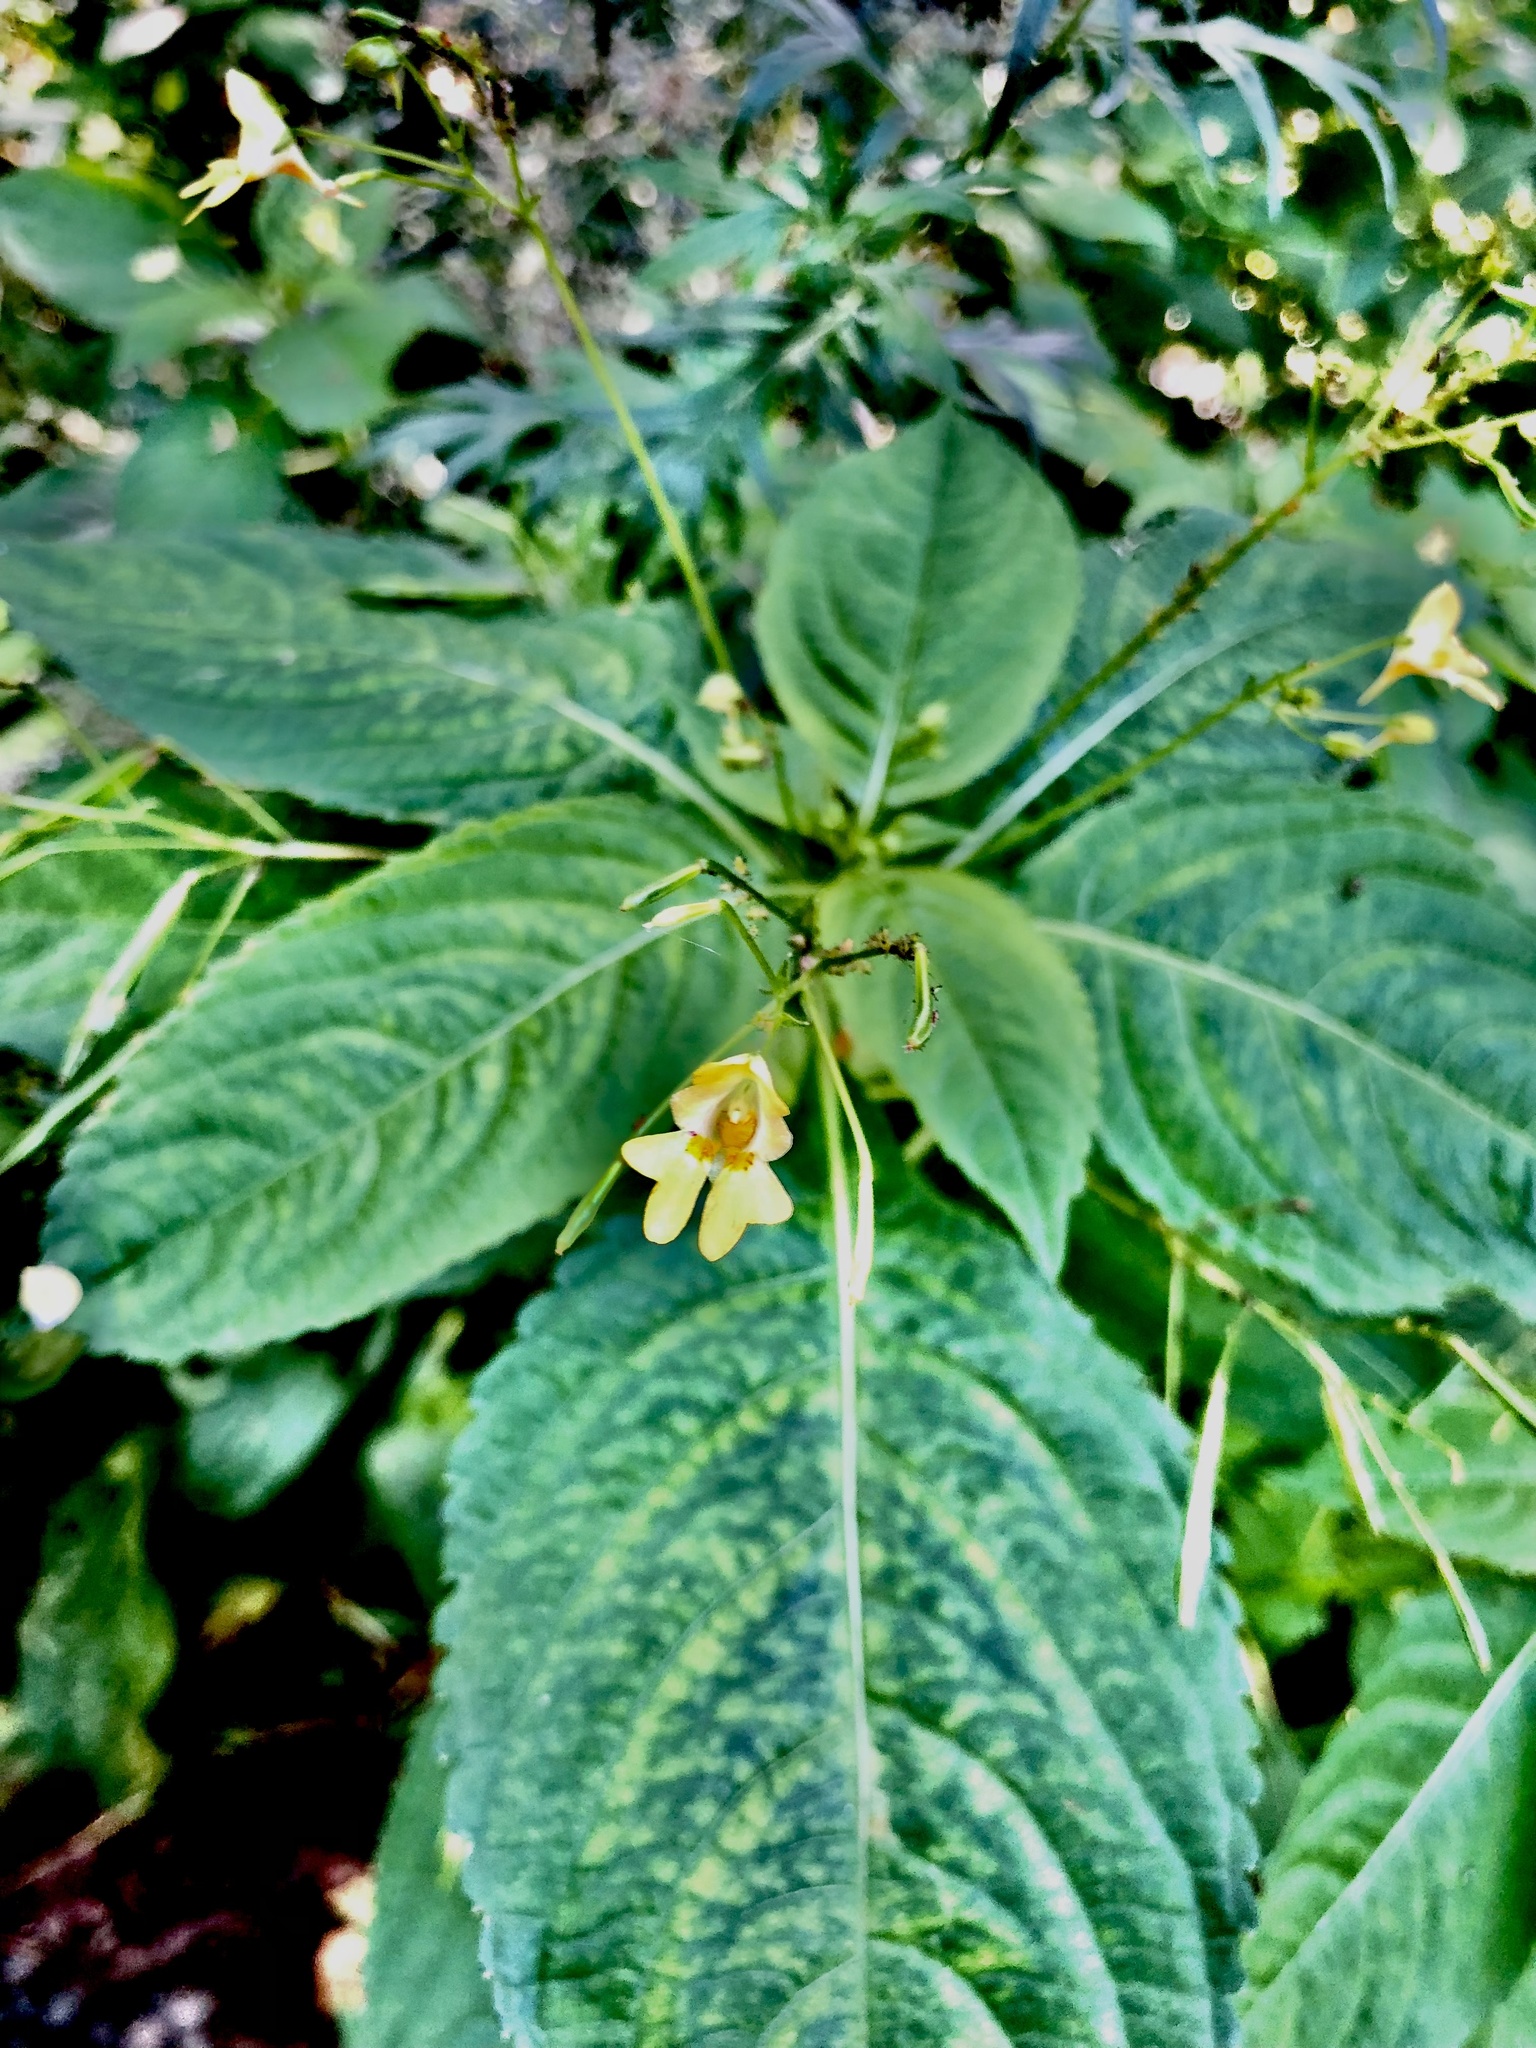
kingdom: Plantae
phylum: Tracheophyta
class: Magnoliopsida
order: Ericales
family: Balsaminaceae
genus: Impatiens
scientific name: Impatiens parviflora
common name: Small balsam
